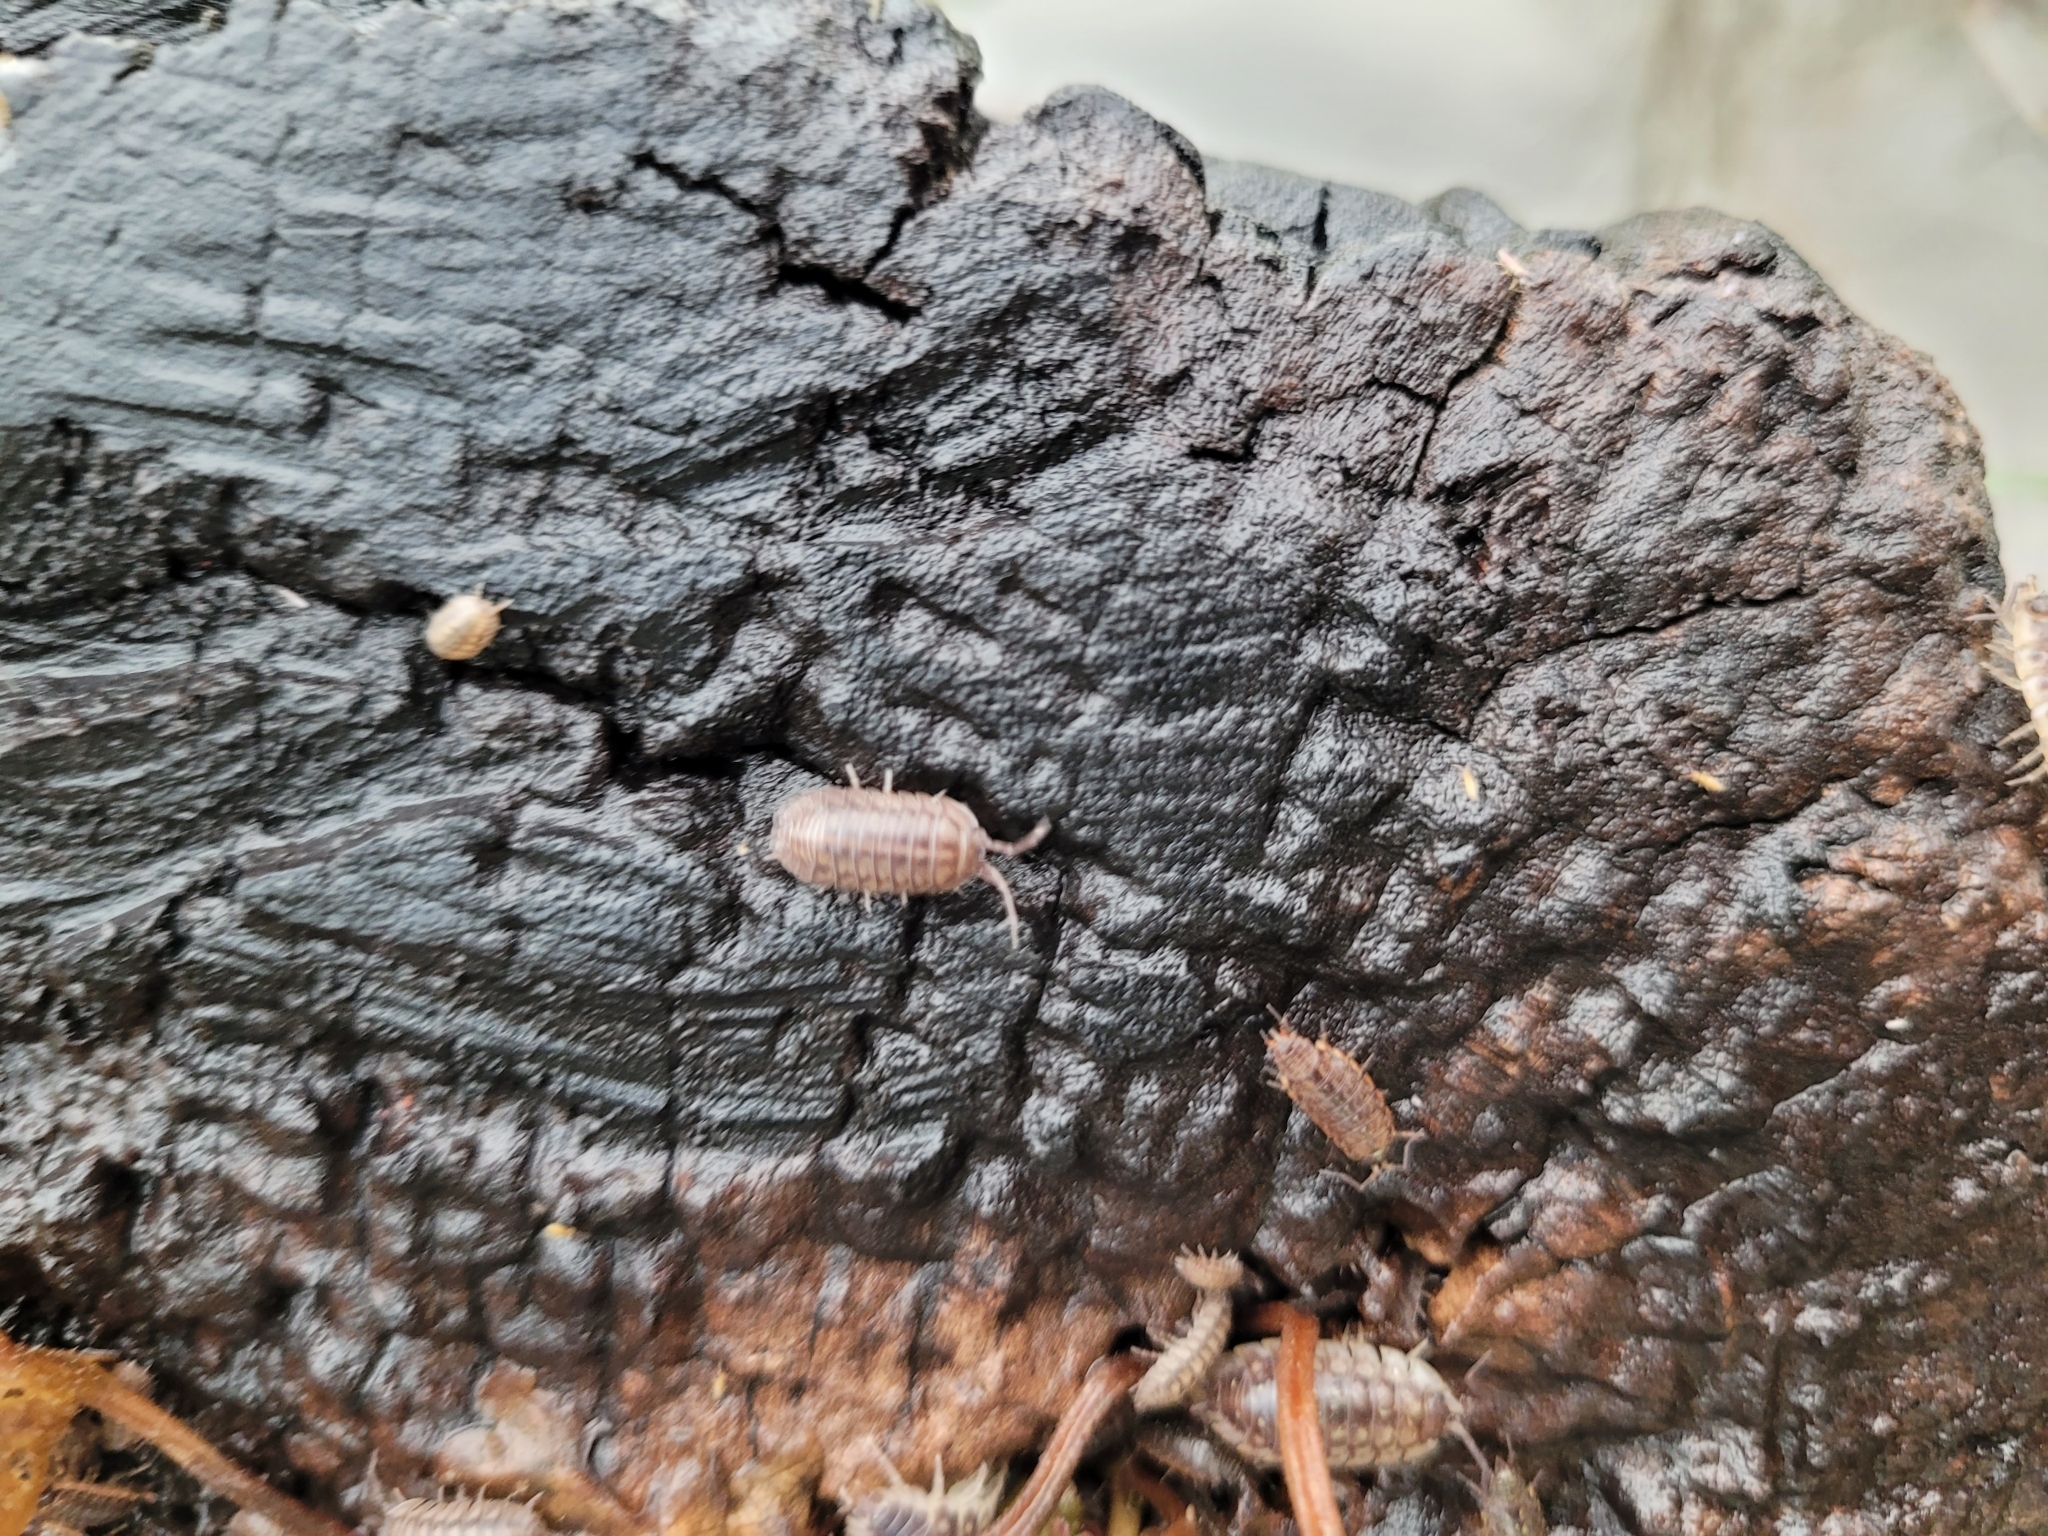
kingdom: Animalia
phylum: Arthropoda
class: Malacostraca
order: Isopoda
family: Armadillidiidae
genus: Armadillidium
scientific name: Armadillidium nasatum
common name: Isopod
